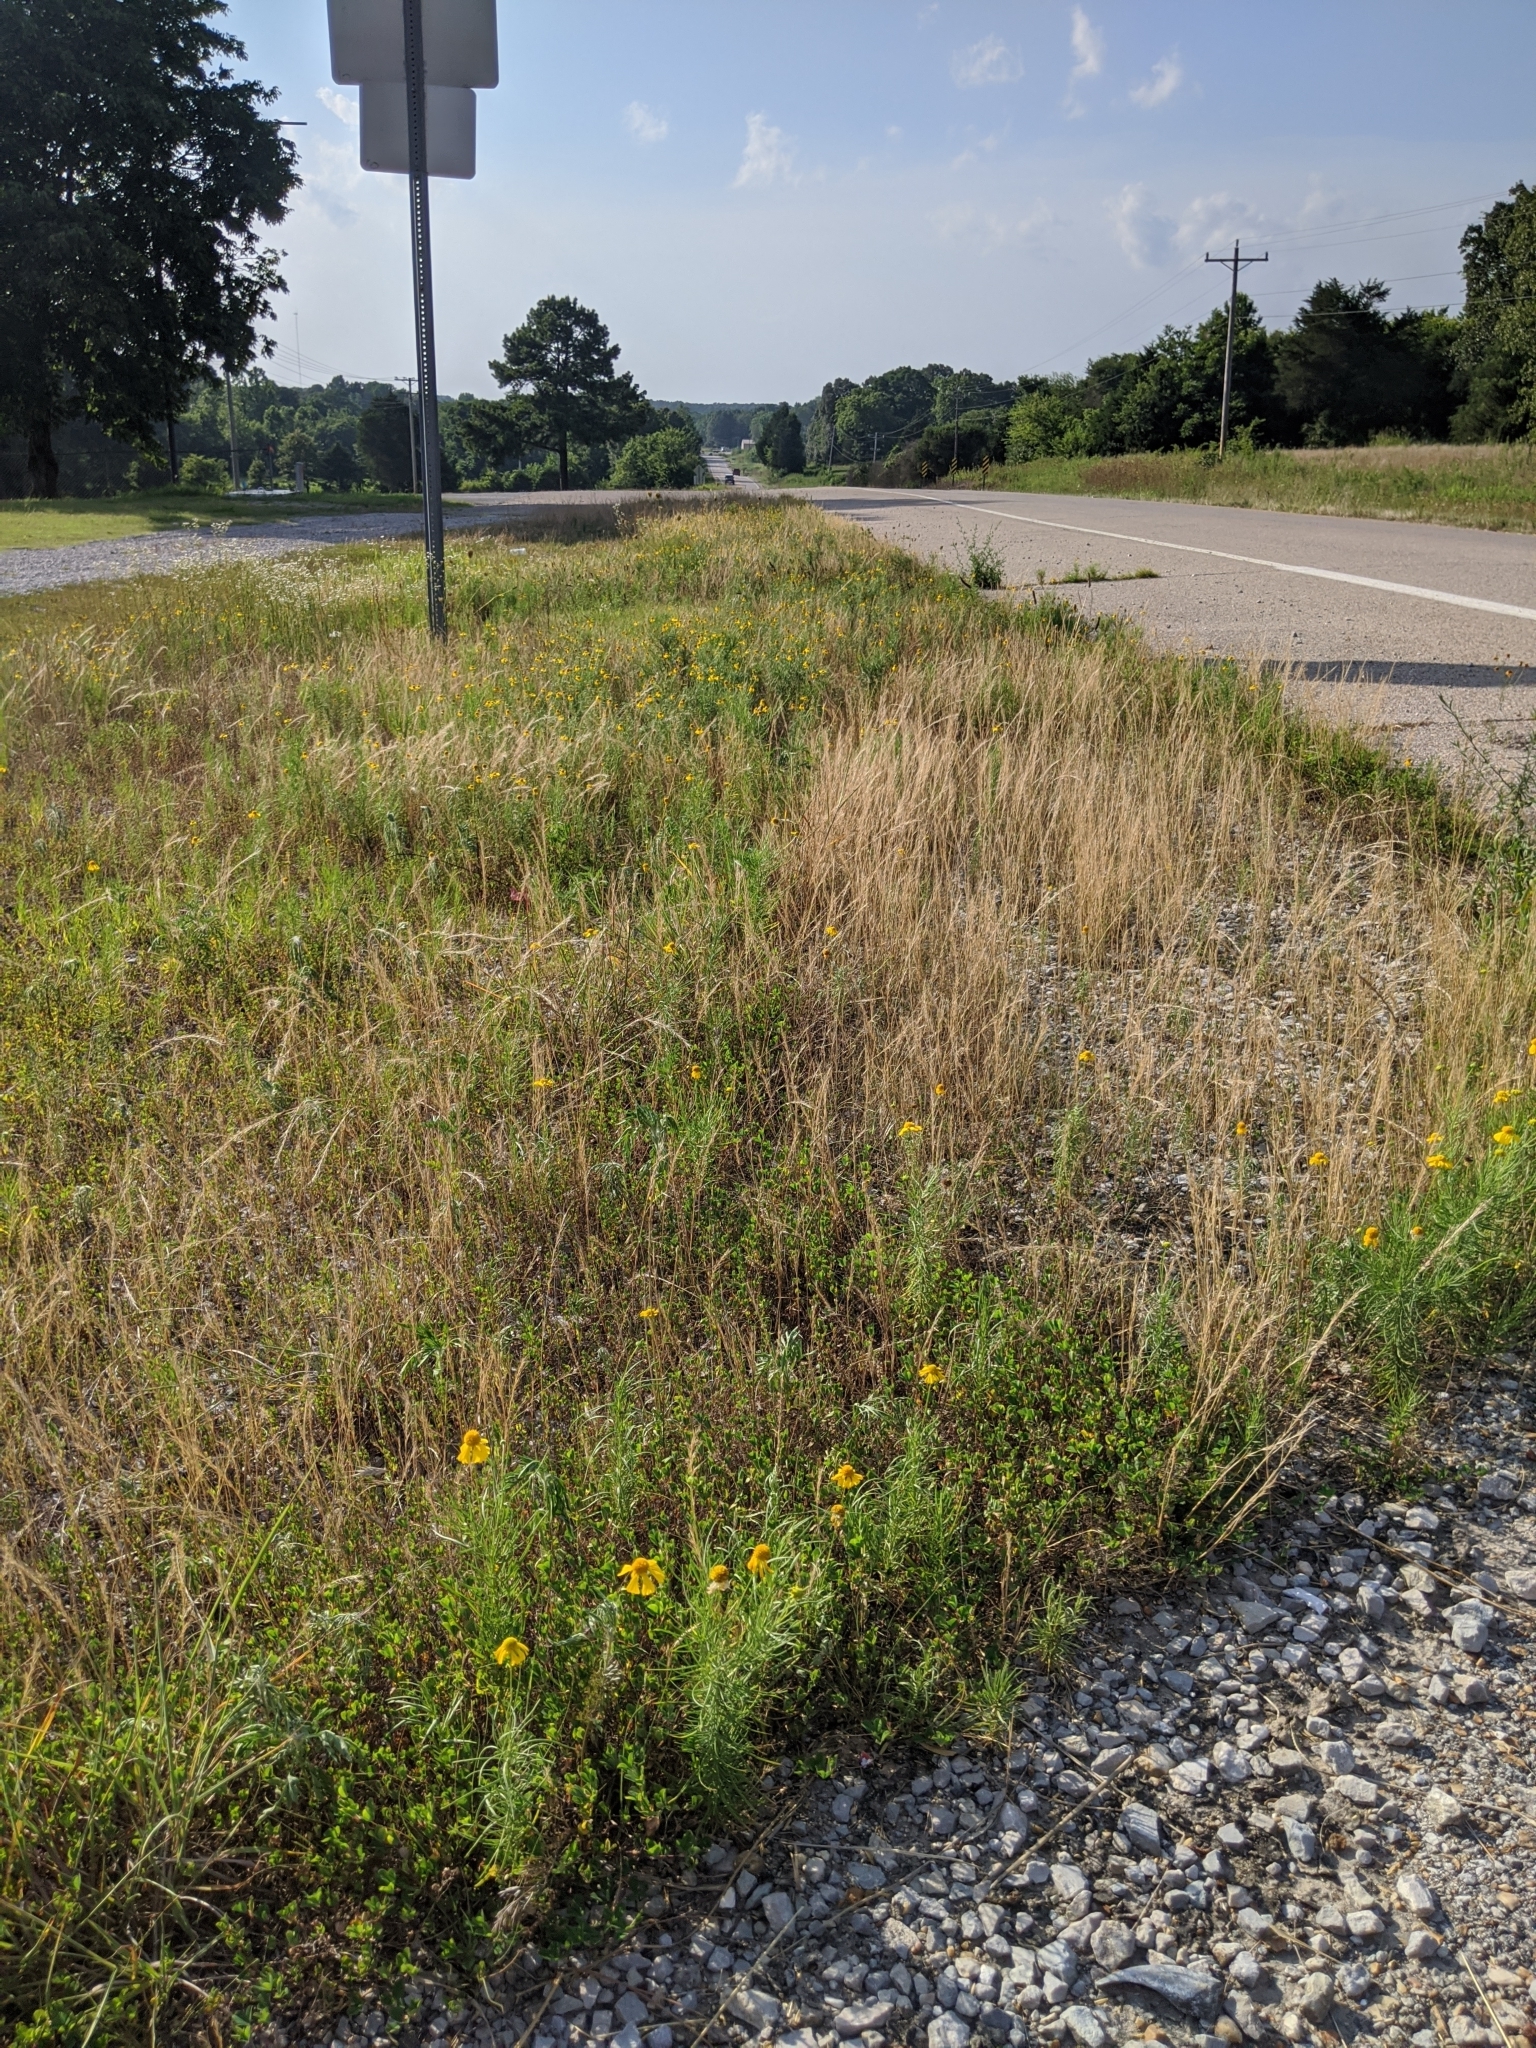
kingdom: Plantae
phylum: Tracheophyta
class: Magnoliopsida
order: Asterales
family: Asteraceae
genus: Helenium
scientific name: Helenium amarum
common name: Bitter sneezeweed
